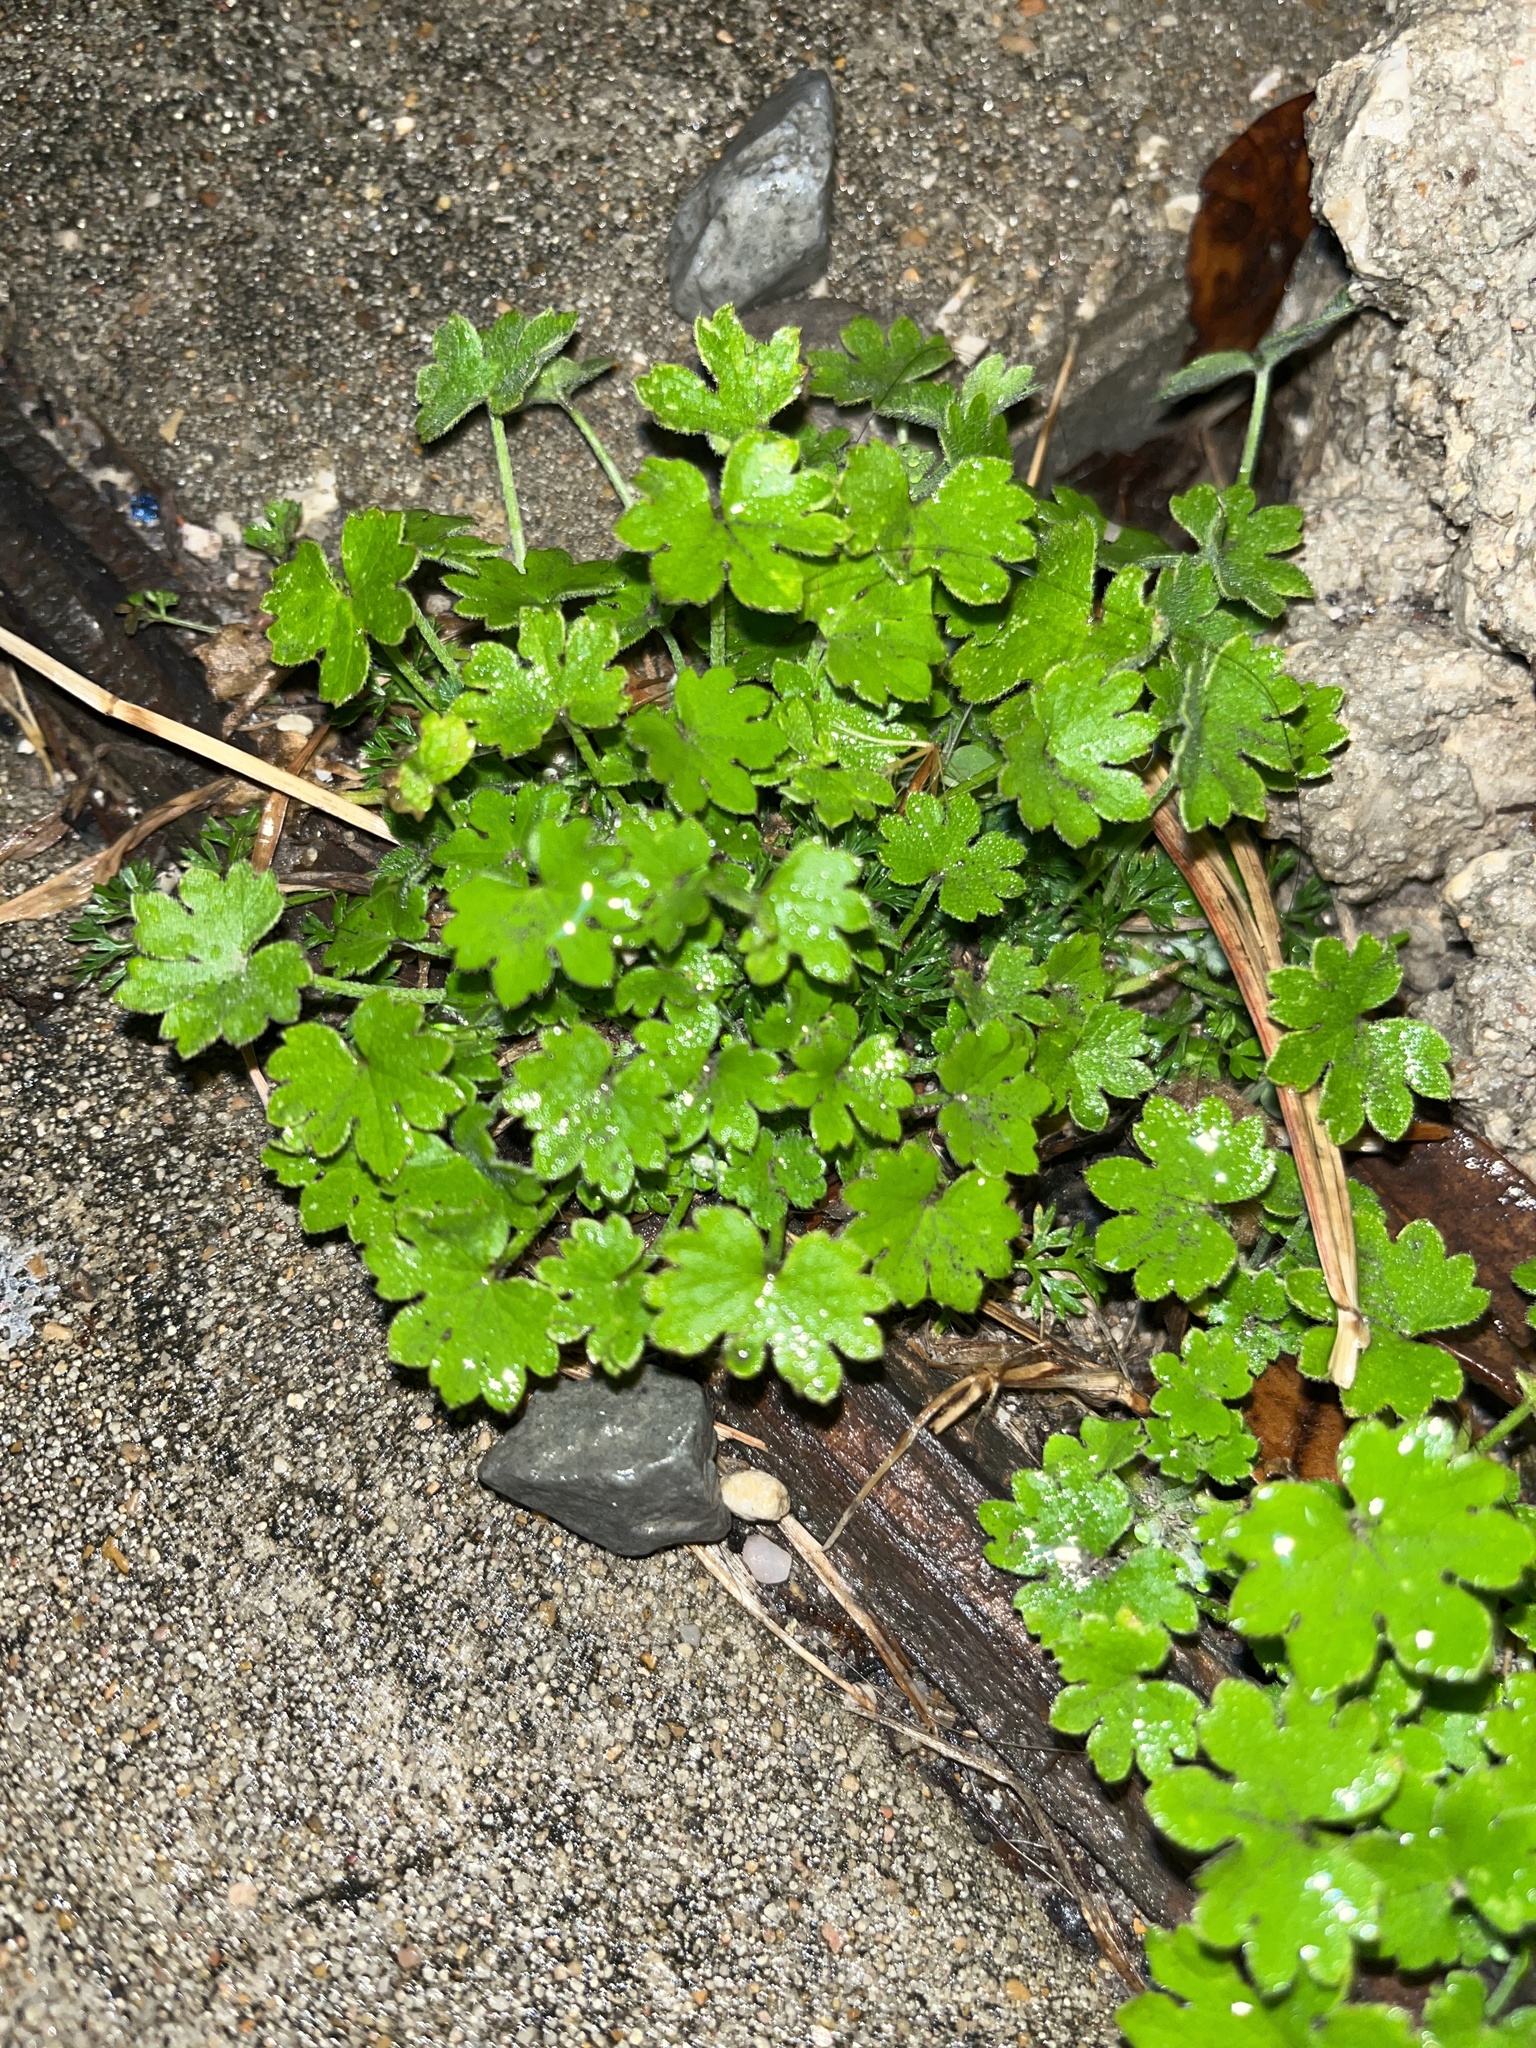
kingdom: Plantae
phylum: Tracheophyta
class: Magnoliopsida
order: Apiales
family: Apiaceae
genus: Bowlesia
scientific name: Bowlesia incana
